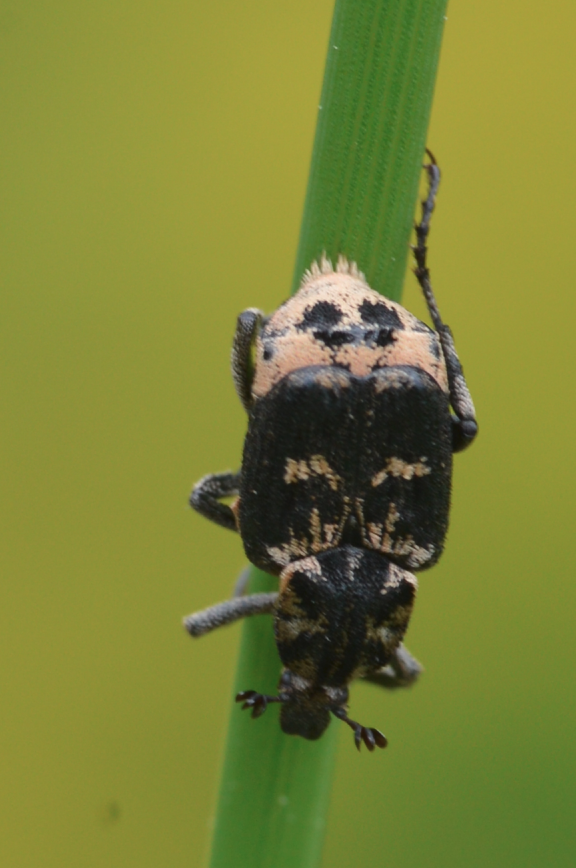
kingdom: Animalia
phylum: Arthropoda
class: Insecta
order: Coleoptera
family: Scarabaeidae
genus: Valgus
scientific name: Valgus hemipterus
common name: Bug flower chafer
